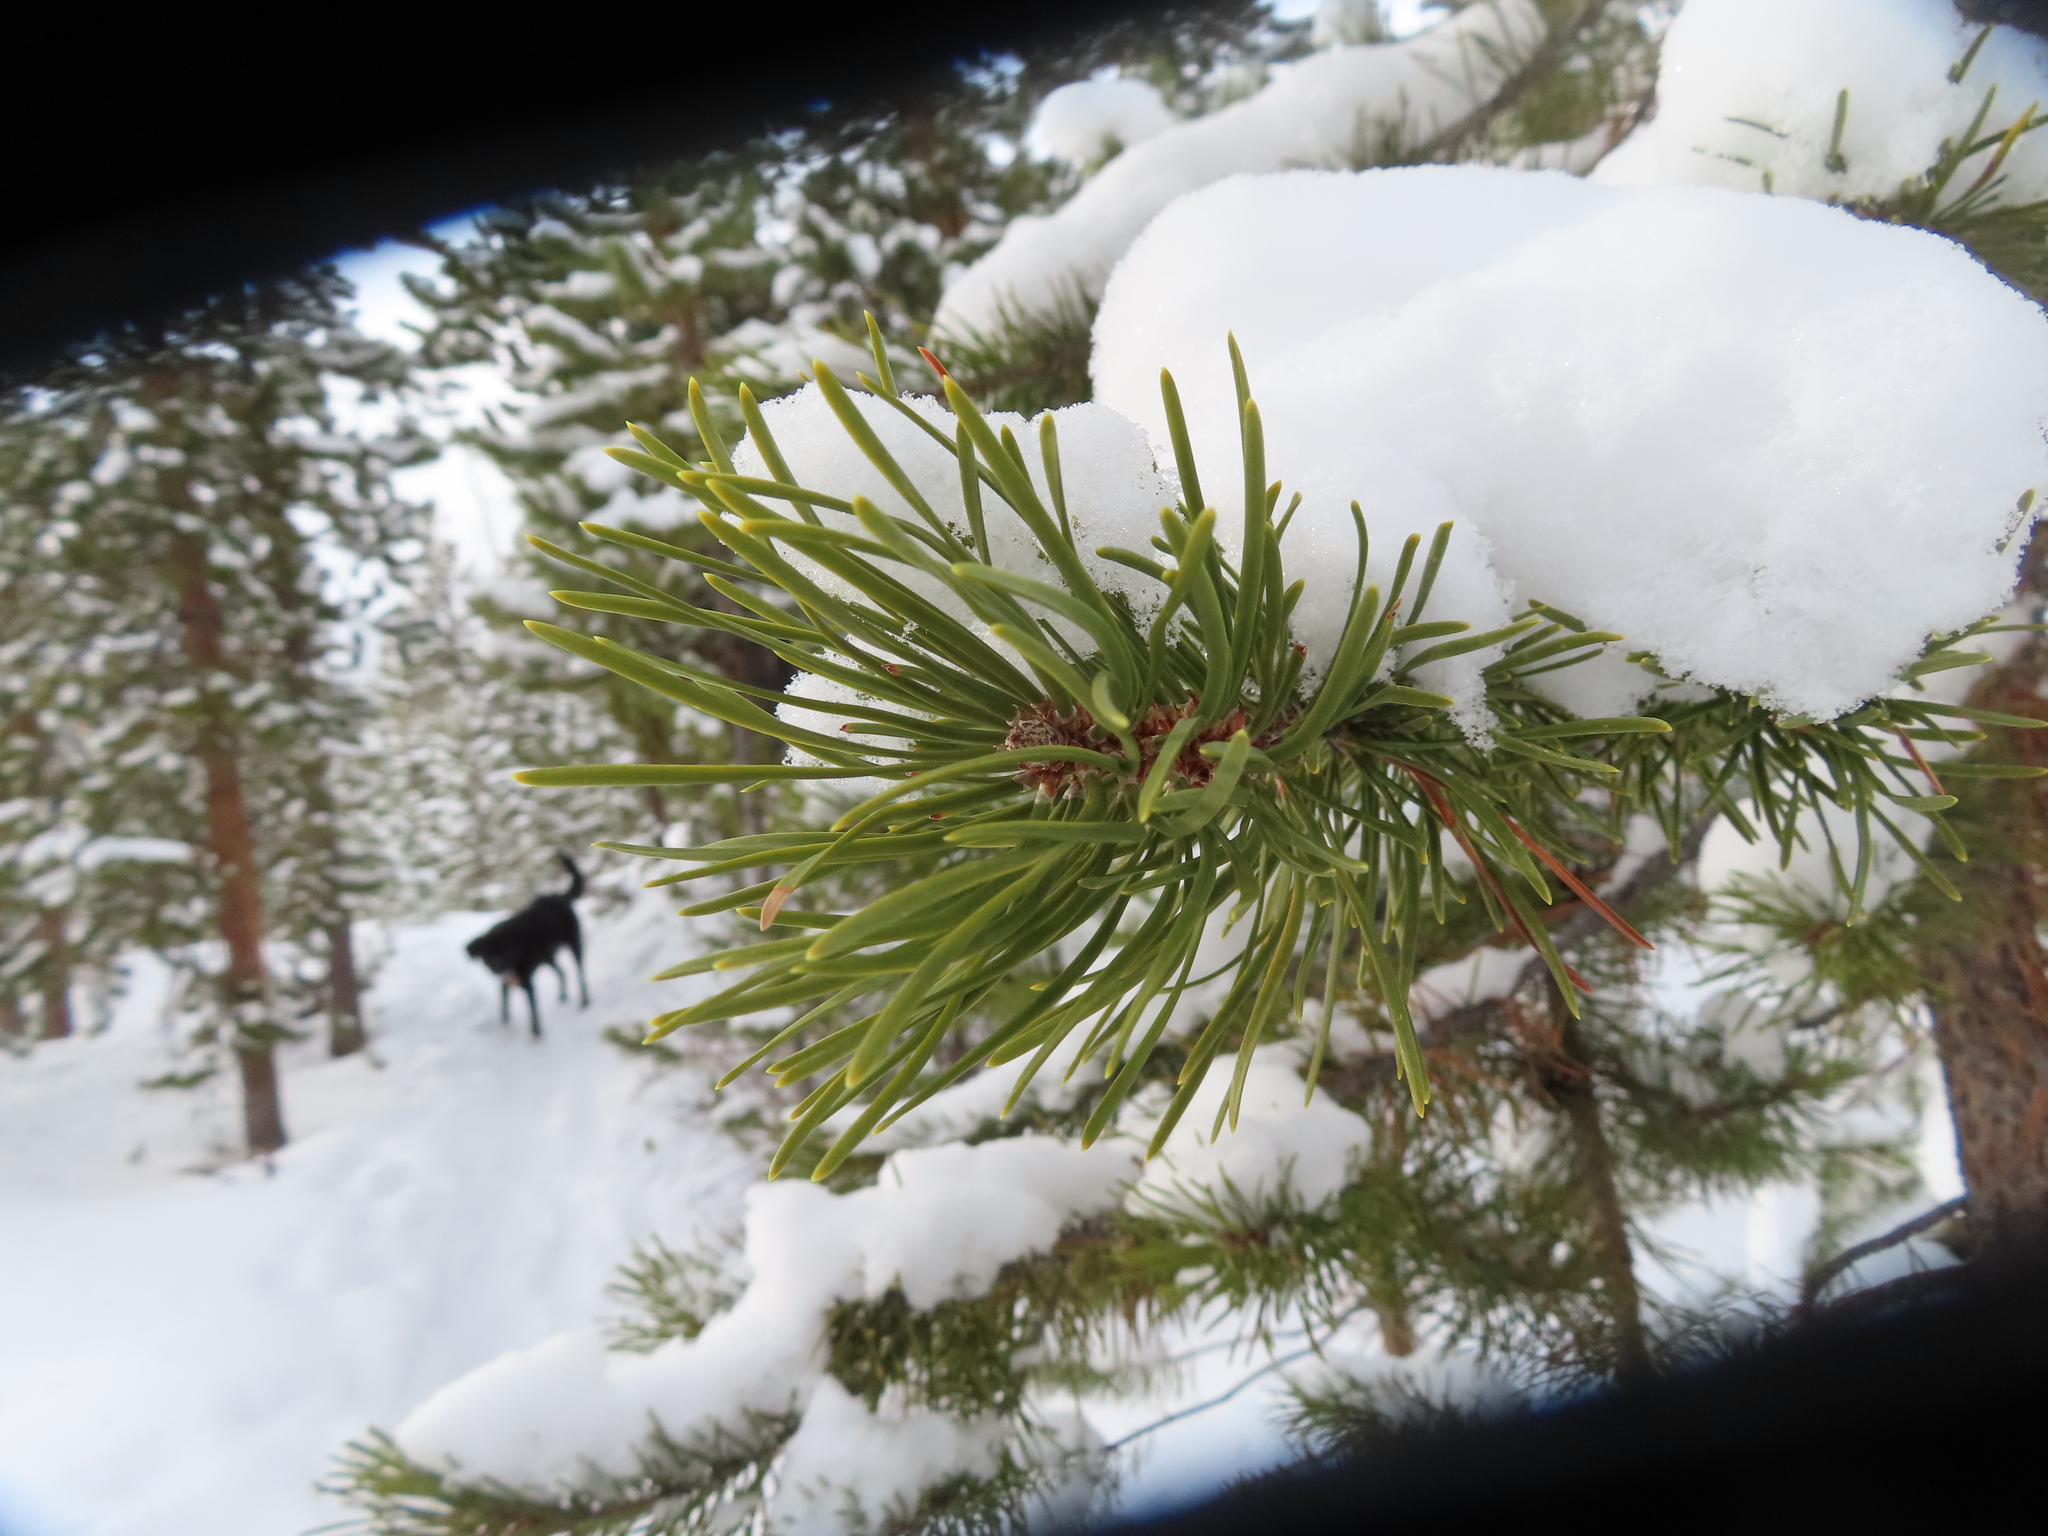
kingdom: Plantae
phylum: Tracheophyta
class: Pinopsida
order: Pinales
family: Pinaceae
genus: Pinus
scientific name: Pinus contorta
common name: Lodgepole pine
